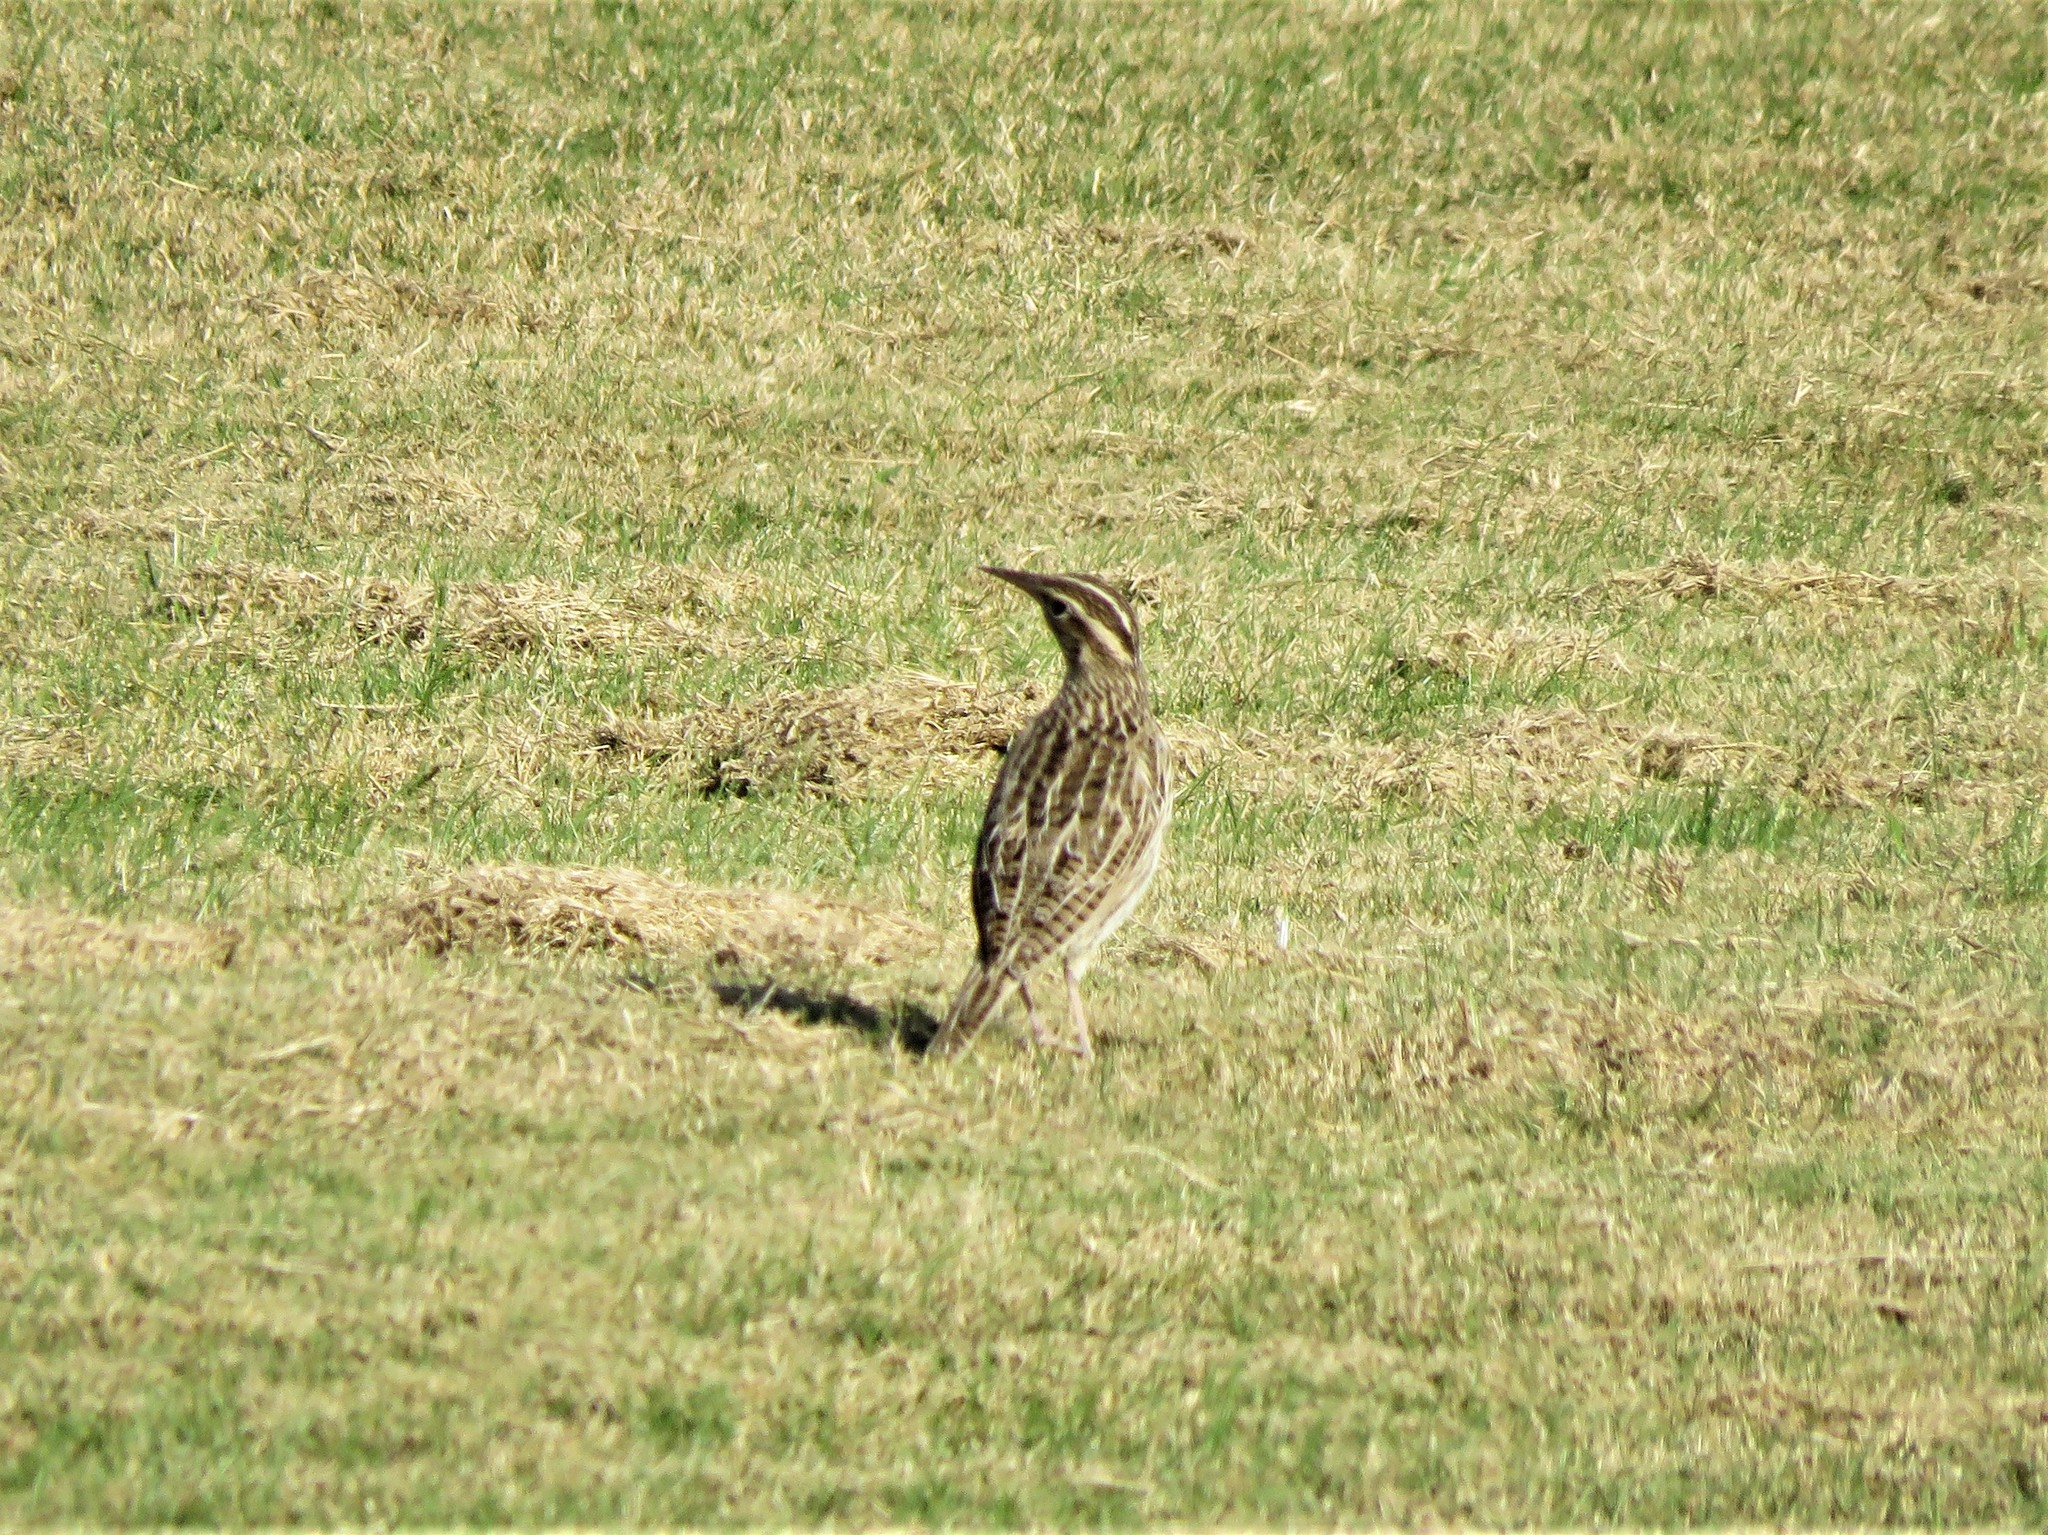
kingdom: Animalia
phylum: Chordata
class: Aves
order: Passeriformes
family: Icteridae
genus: Sturnella
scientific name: Sturnella
